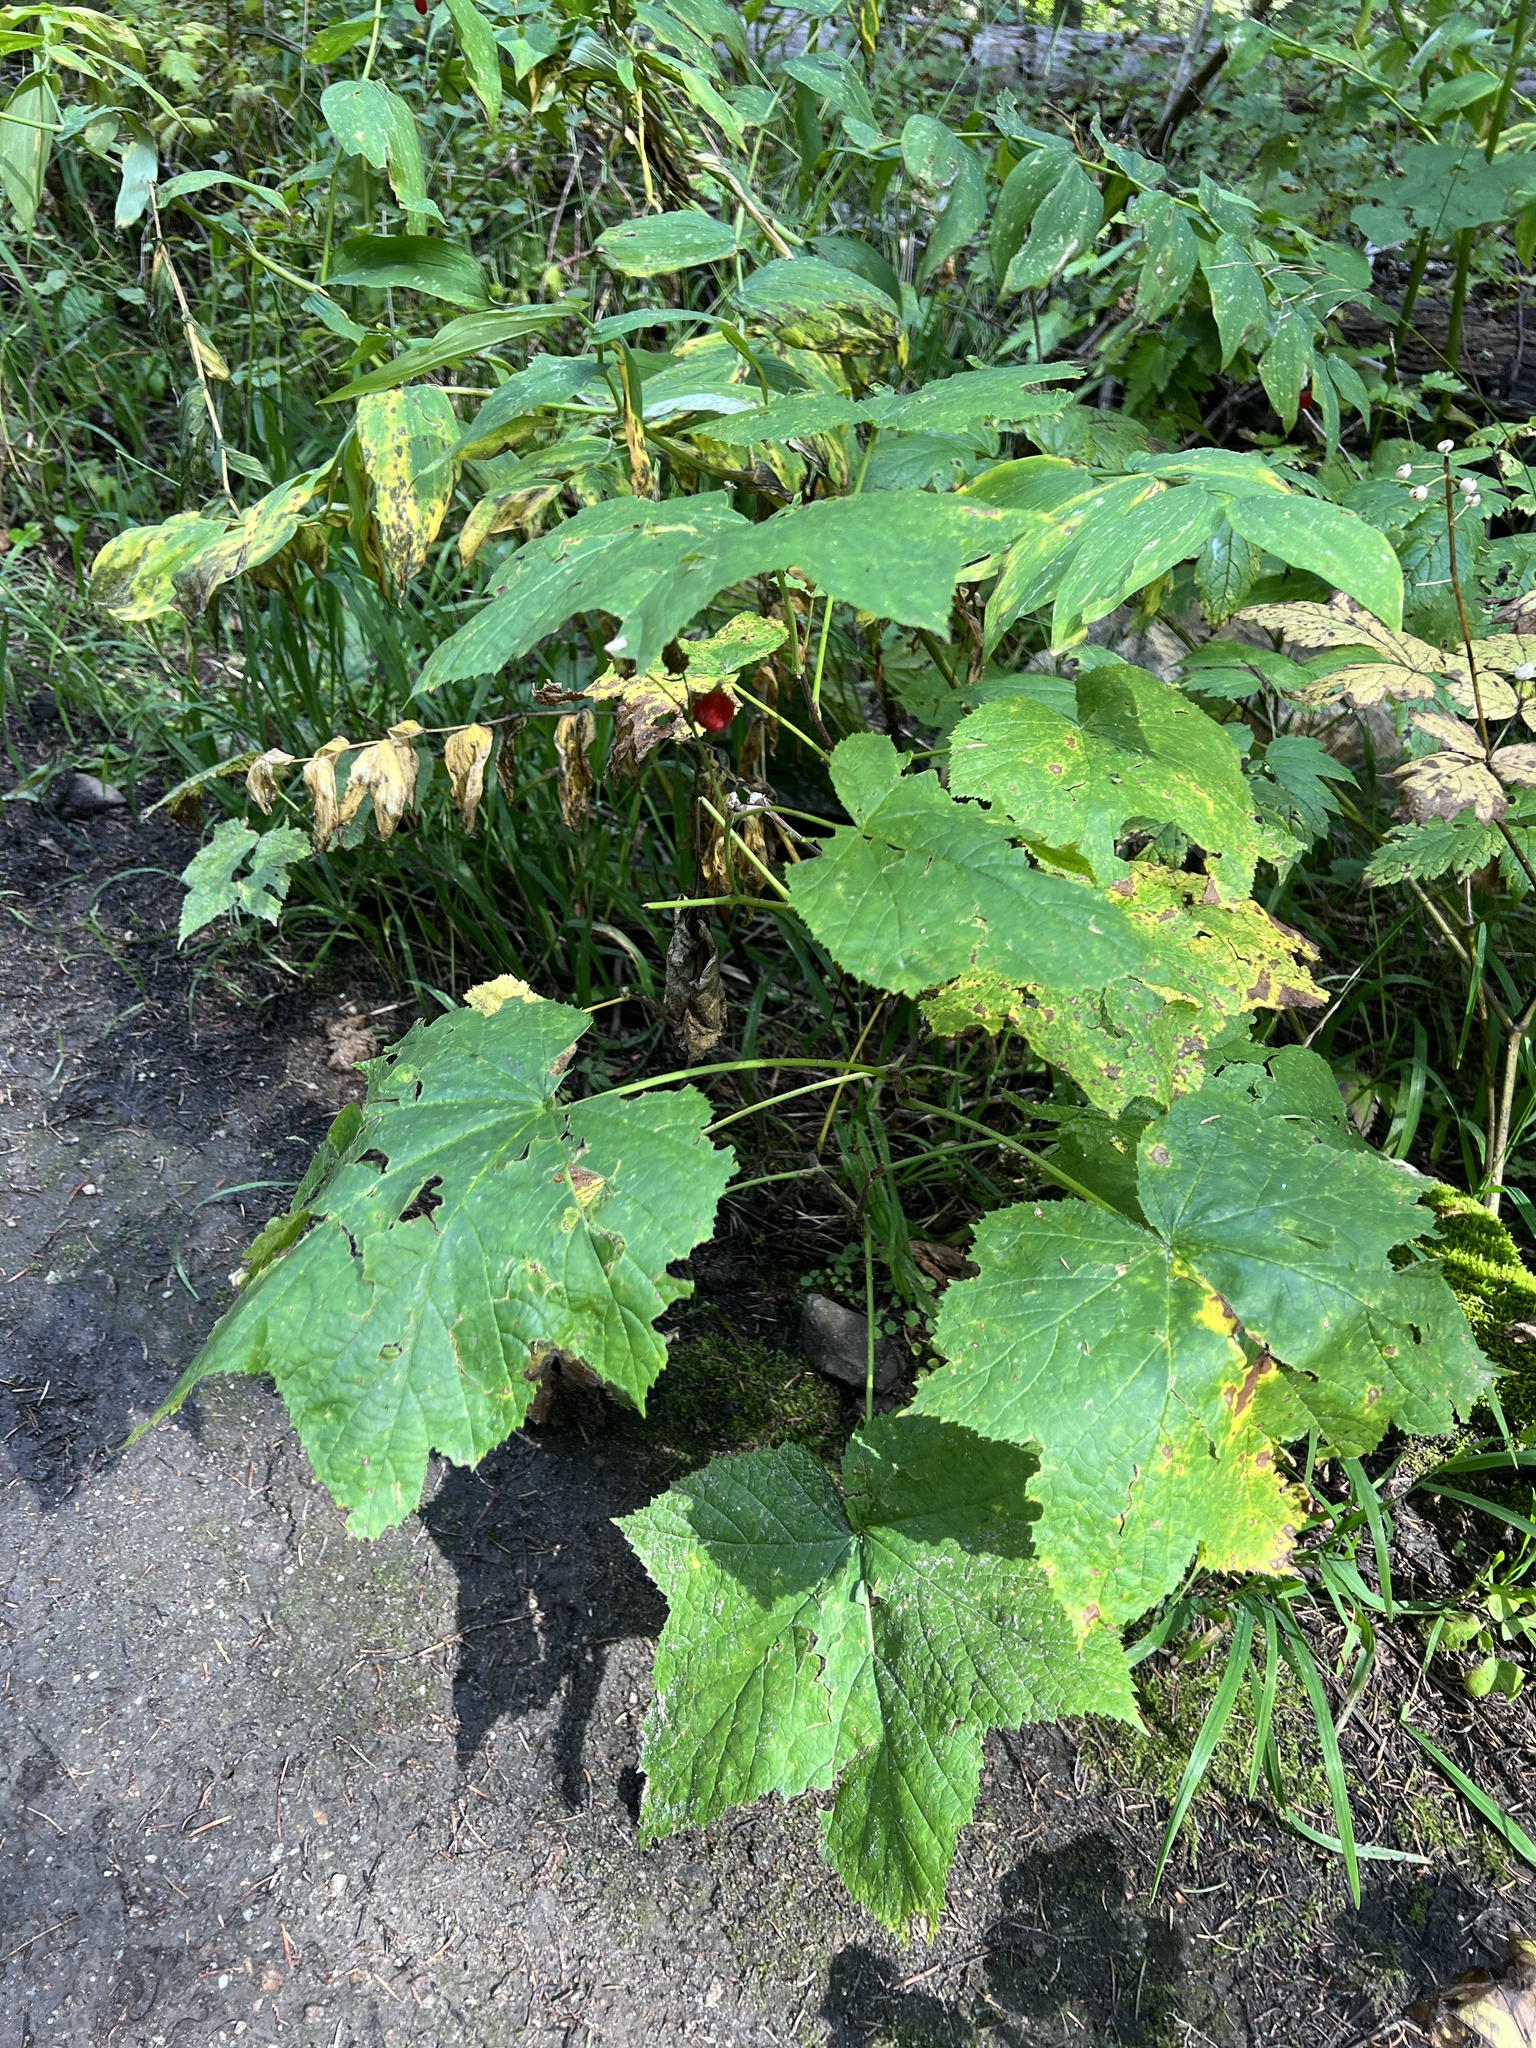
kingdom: Plantae
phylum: Tracheophyta
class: Magnoliopsida
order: Rosales
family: Rosaceae
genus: Rubus
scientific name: Rubus parviflorus
